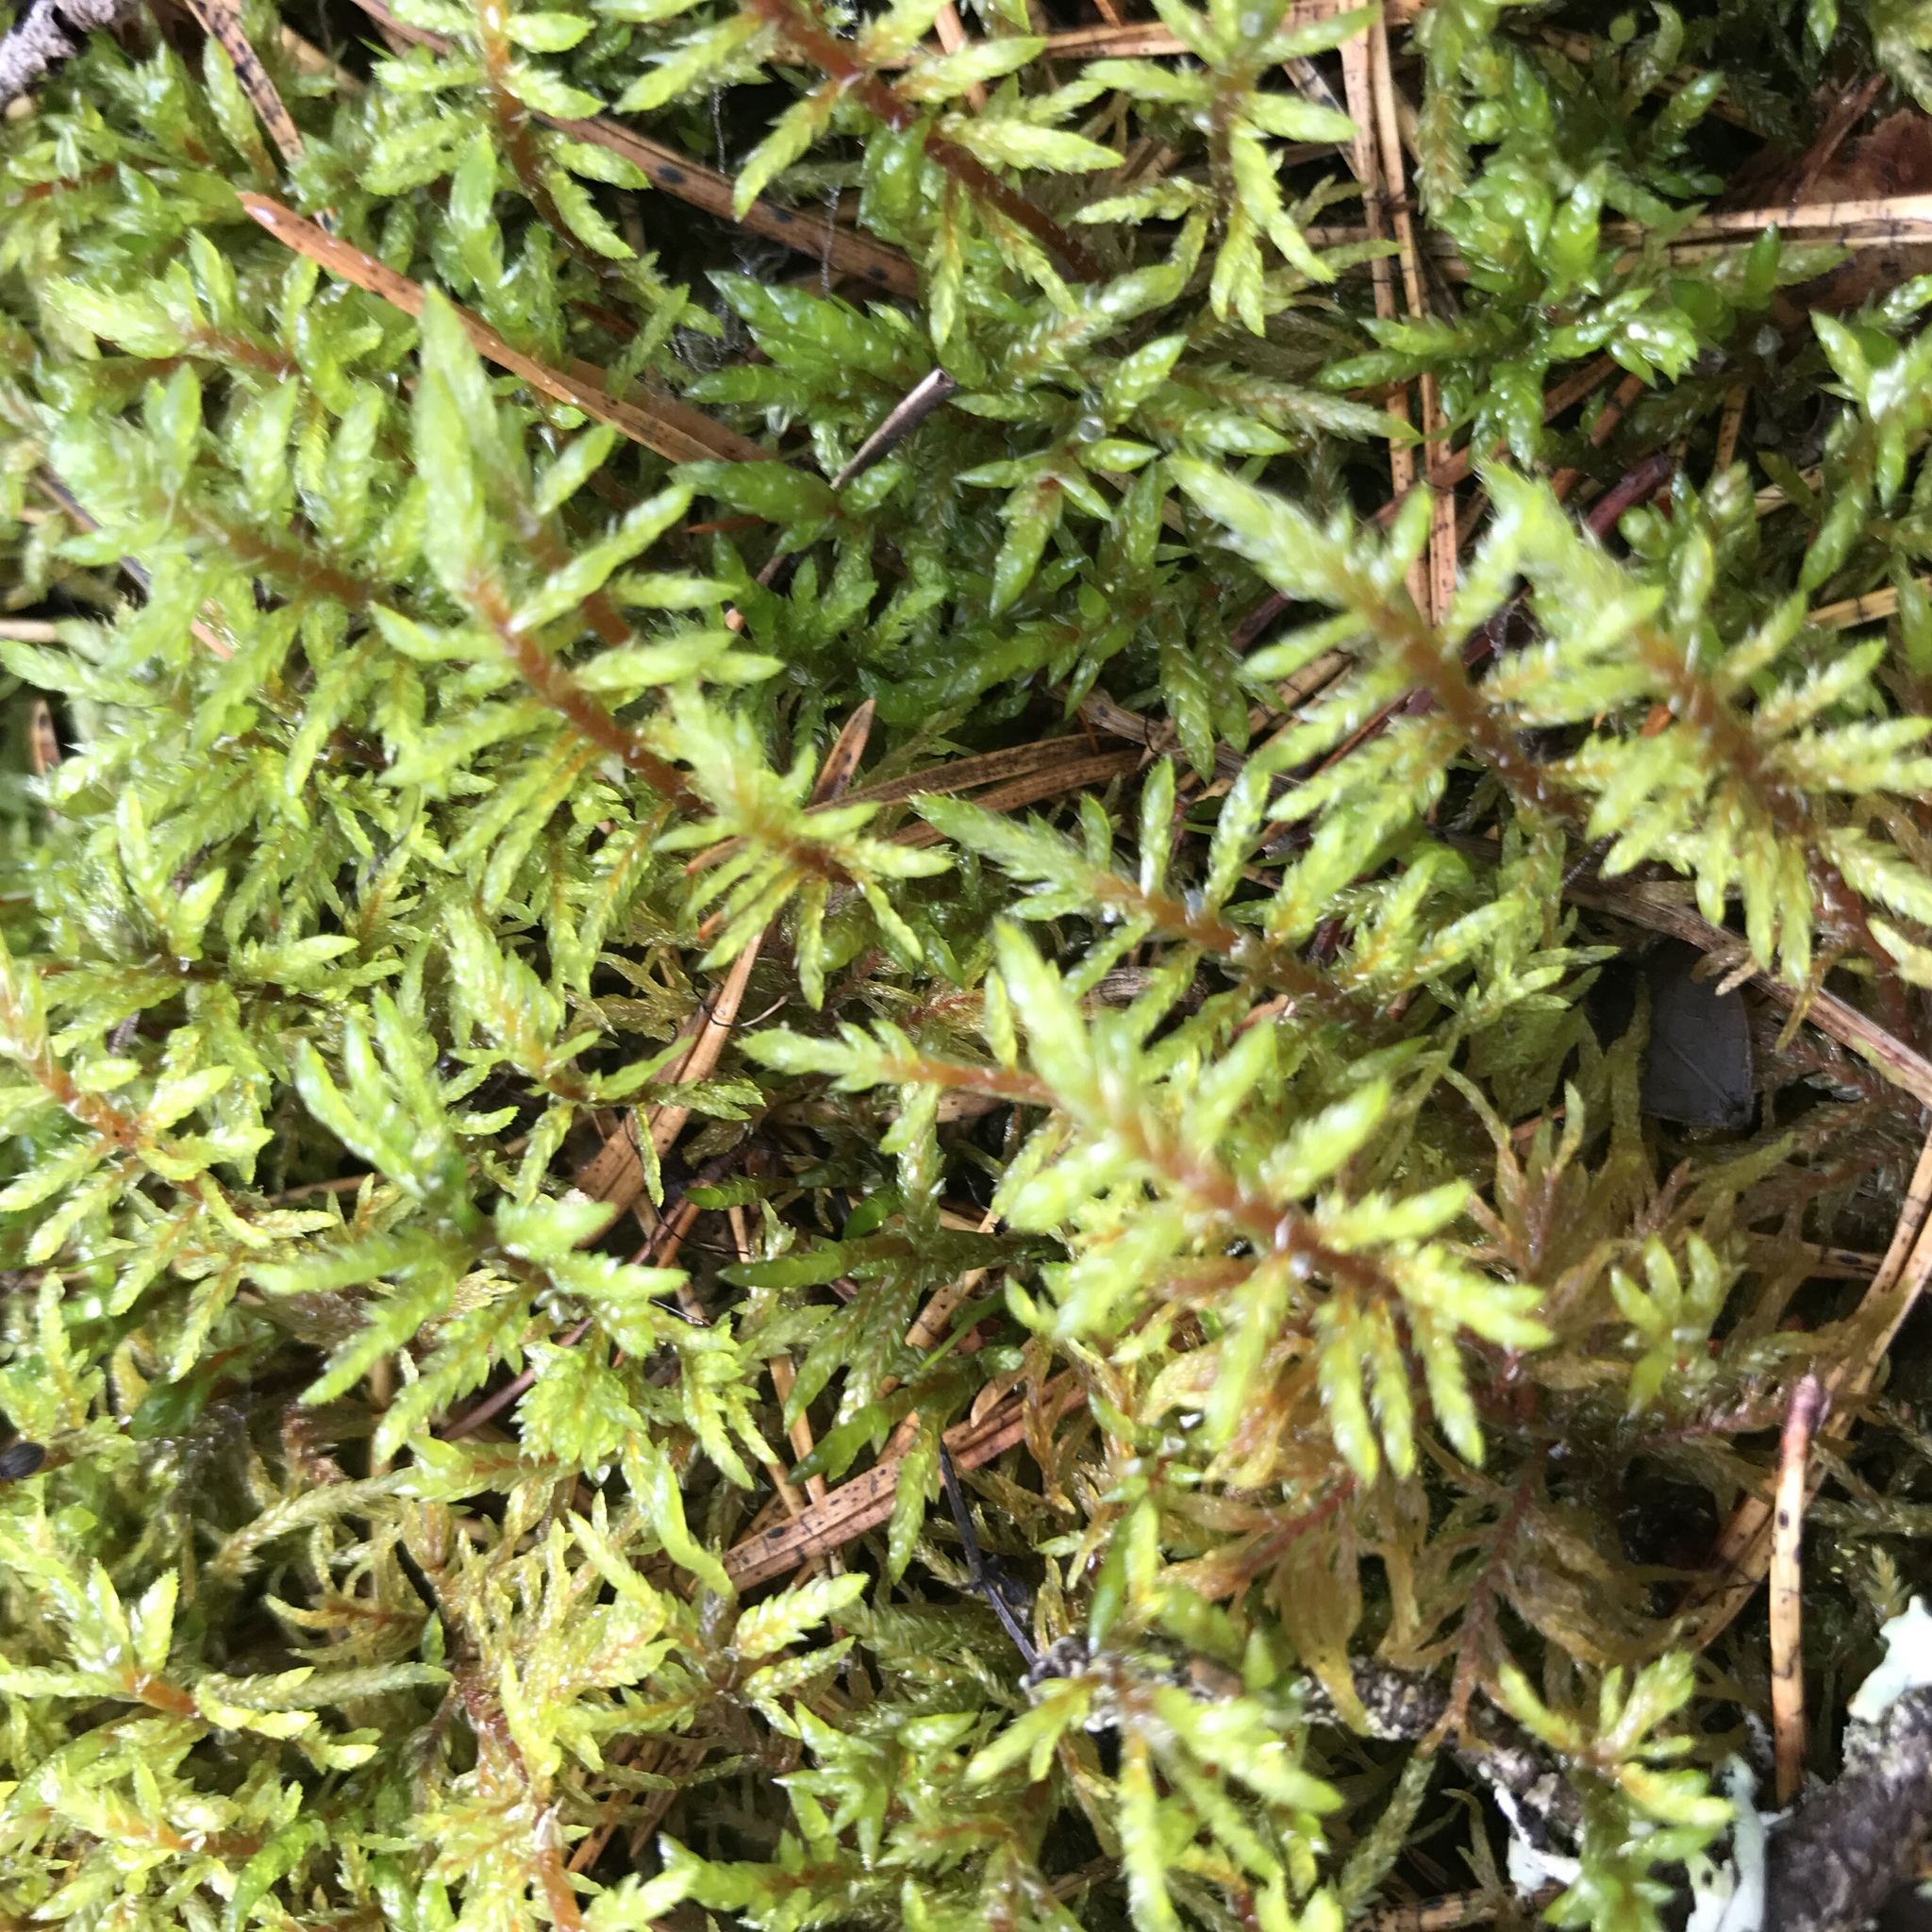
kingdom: Plantae
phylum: Bryophyta
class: Bryopsida
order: Hypnales
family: Hylocomiaceae
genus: Pleurozium
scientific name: Pleurozium schreberi
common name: Red-stemmed feather moss
